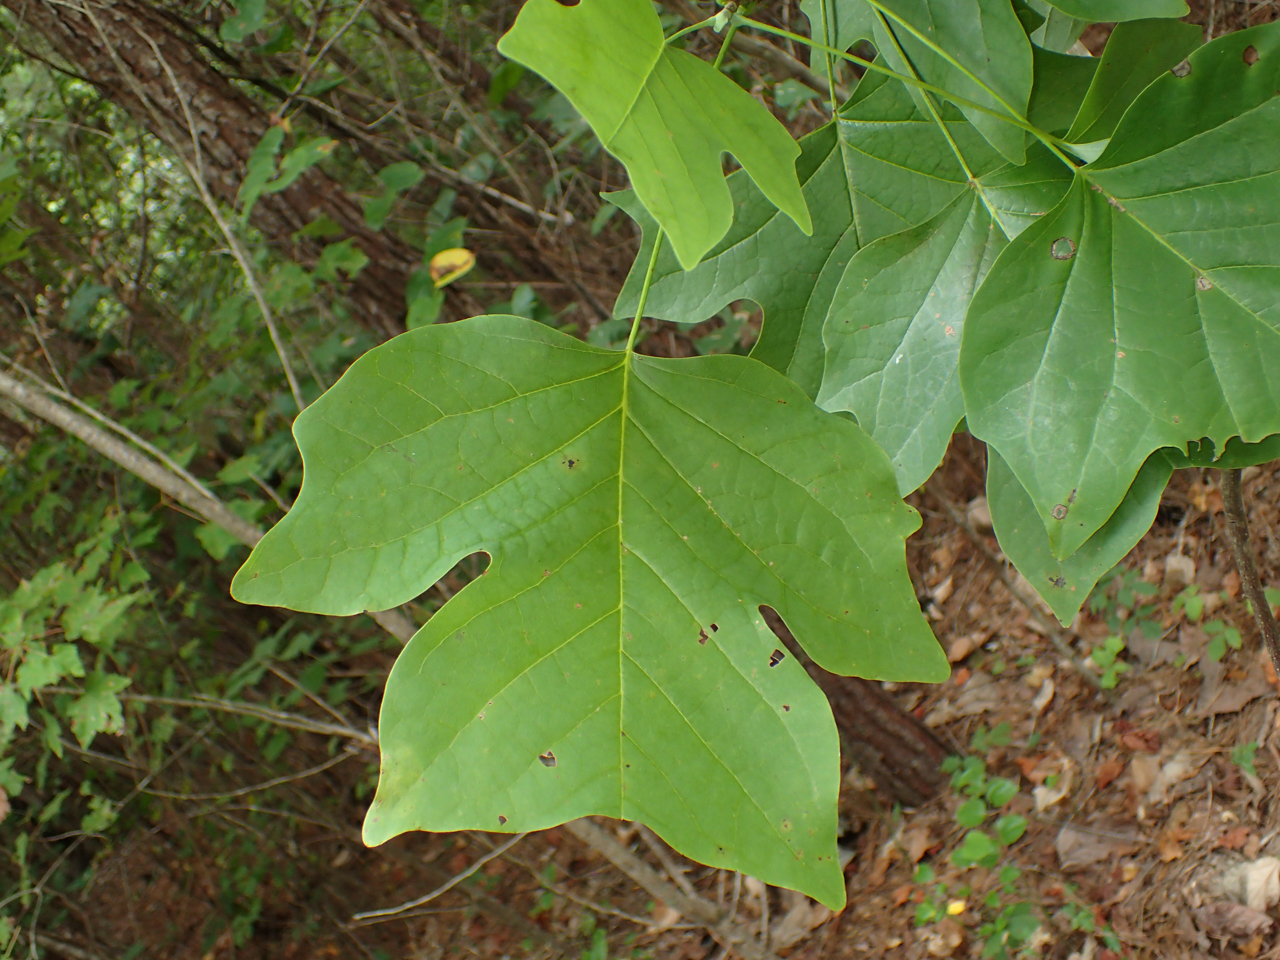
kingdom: Plantae
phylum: Tracheophyta
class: Magnoliopsida
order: Magnoliales
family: Magnoliaceae
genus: Liriodendron
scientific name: Liriodendron tulipifera
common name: Tulip tree
